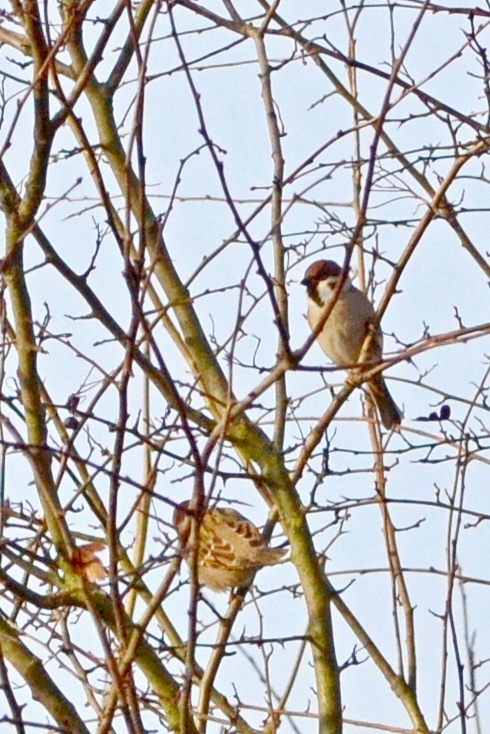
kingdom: Animalia
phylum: Chordata
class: Aves
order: Passeriformes
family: Passeridae
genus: Passer
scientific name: Passer montanus
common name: Eurasian tree sparrow
